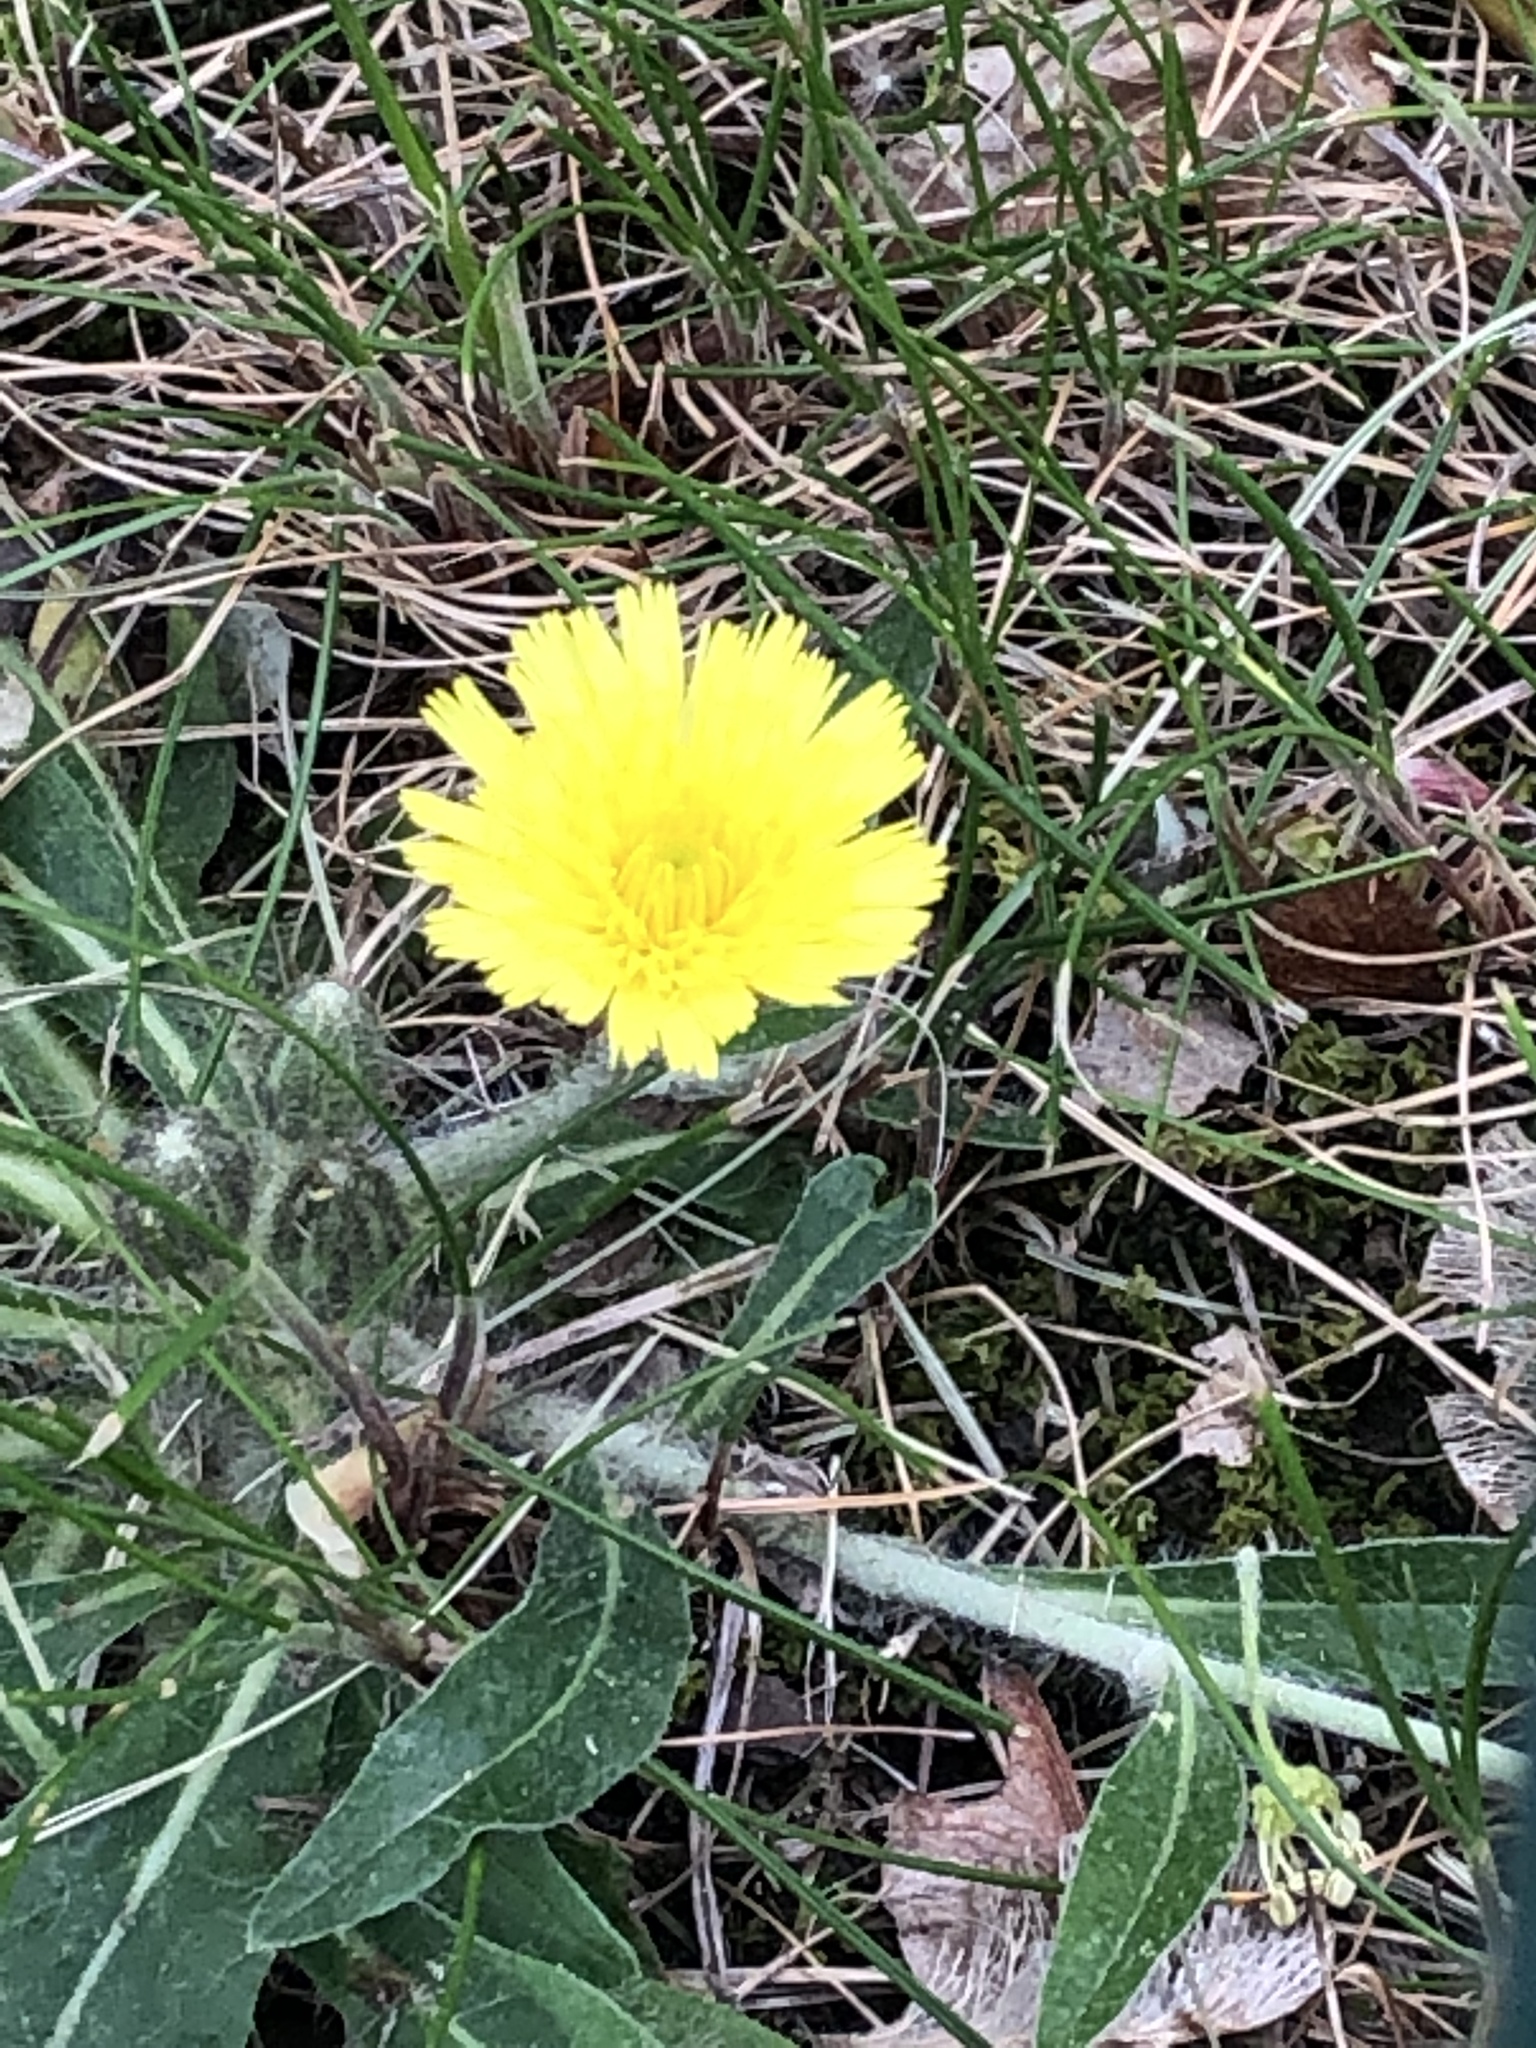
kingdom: Plantae
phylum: Tracheophyta
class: Magnoliopsida
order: Asterales
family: Asteraceae
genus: Pilosella
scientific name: Pilosella officinarum
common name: Mouse-ear hawkweed
